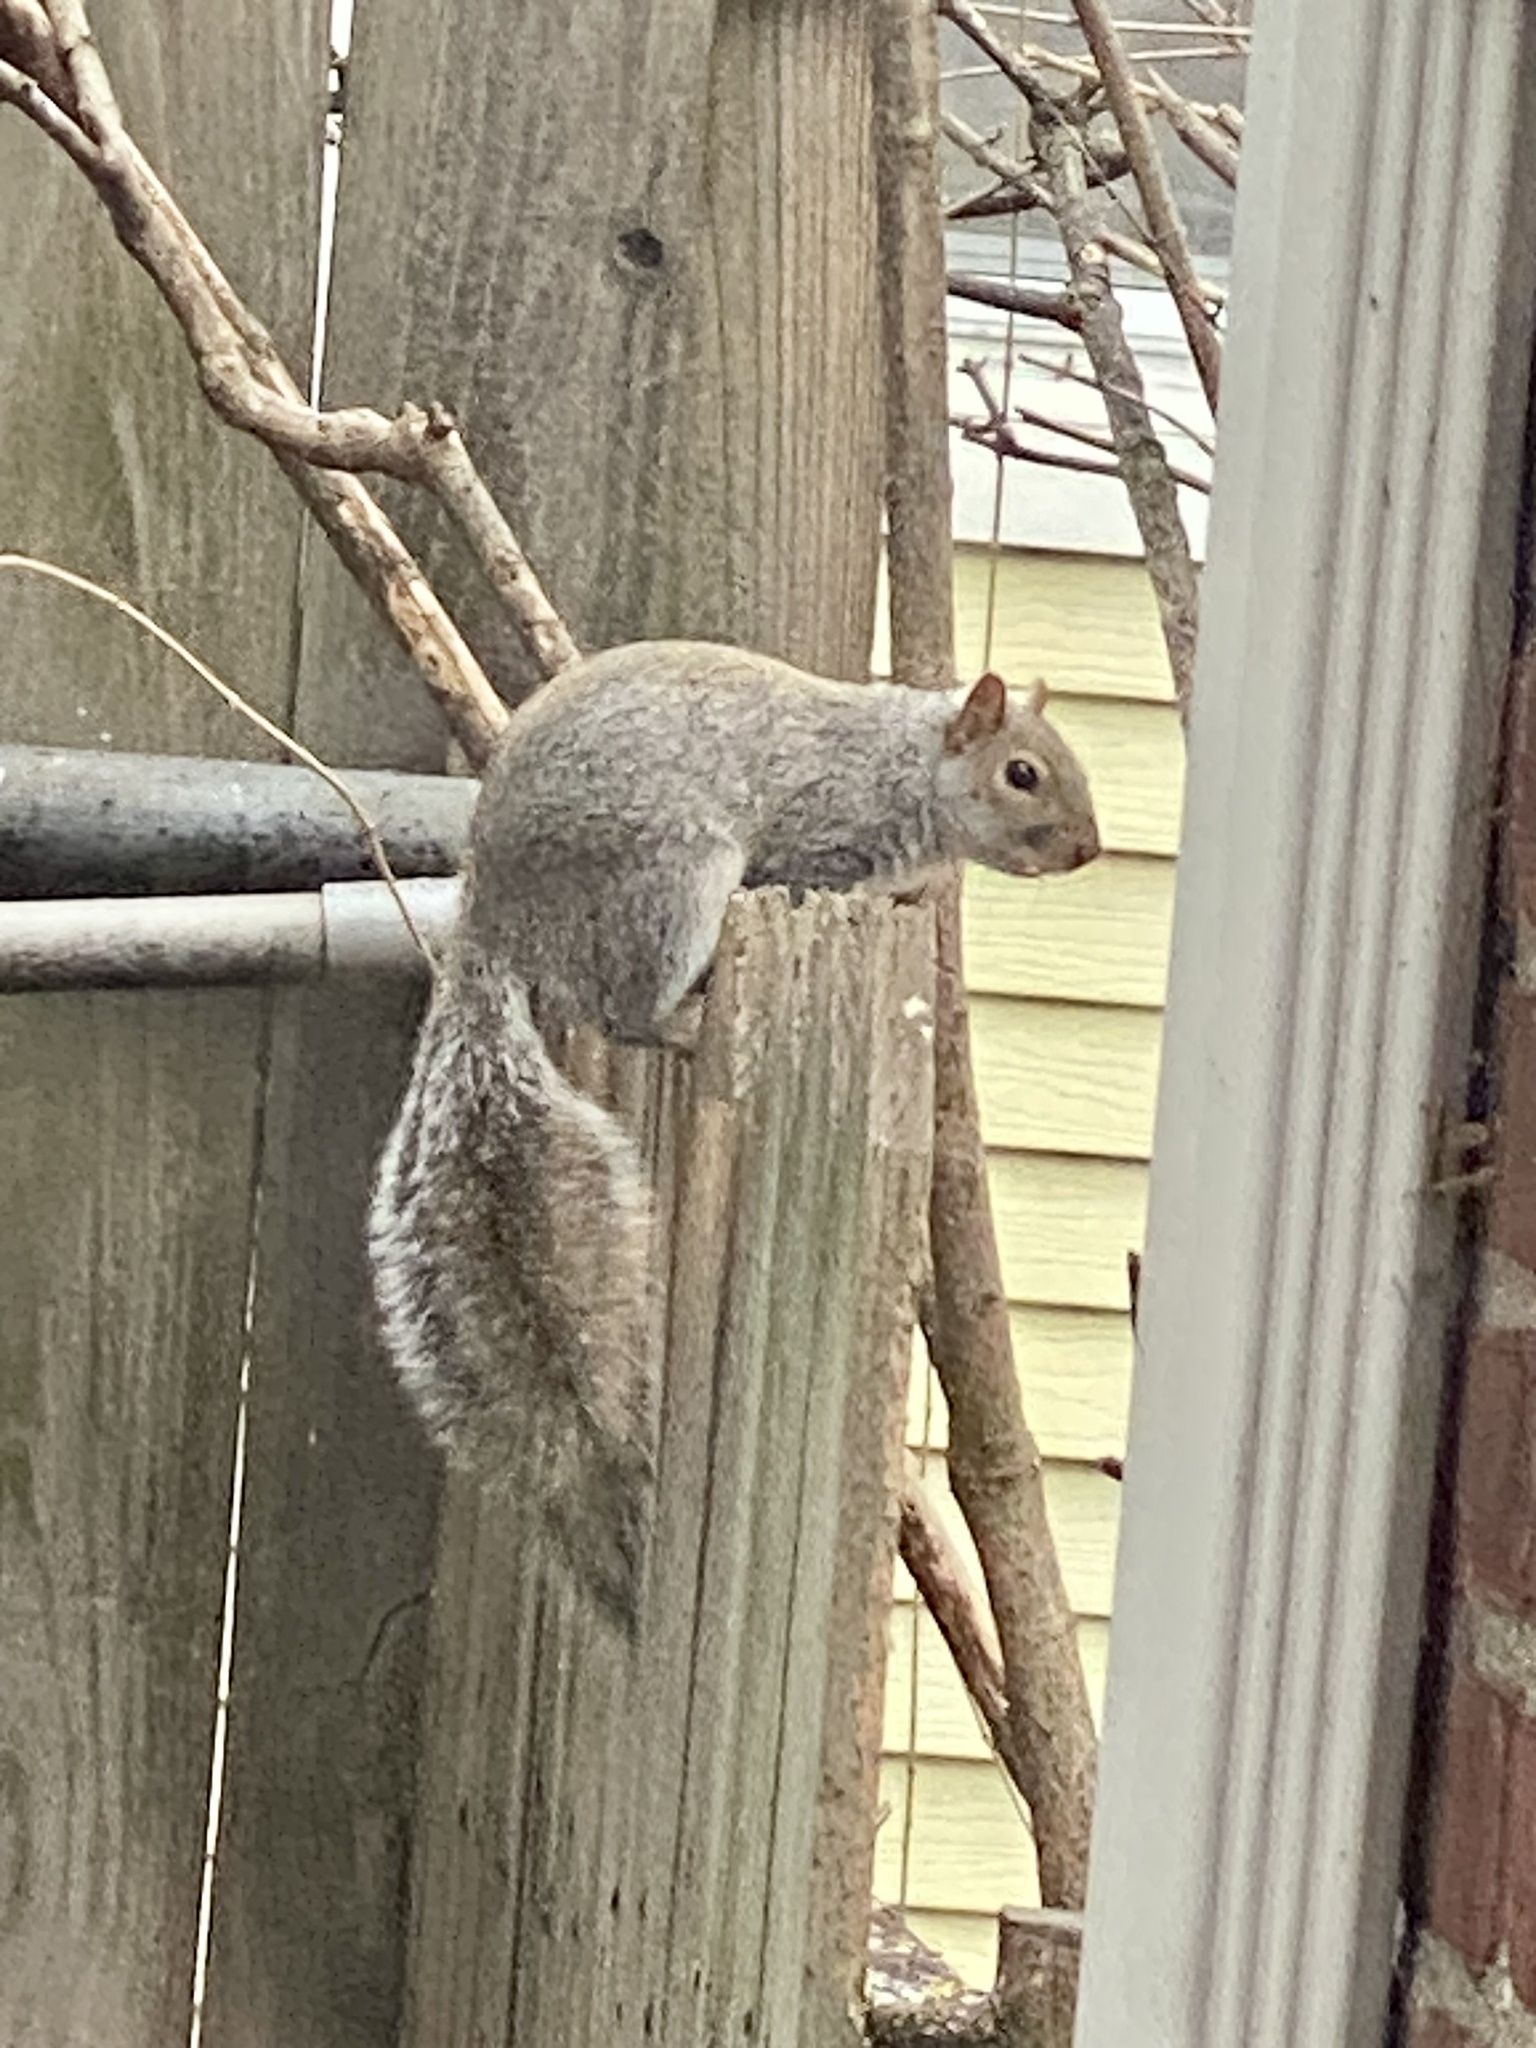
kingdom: Animalia
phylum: Chordata
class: Mammalia
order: Rodentia
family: Sciuridae
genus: Sciurus
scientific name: Sciurus carolinensis
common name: Eastern gray squirrel
